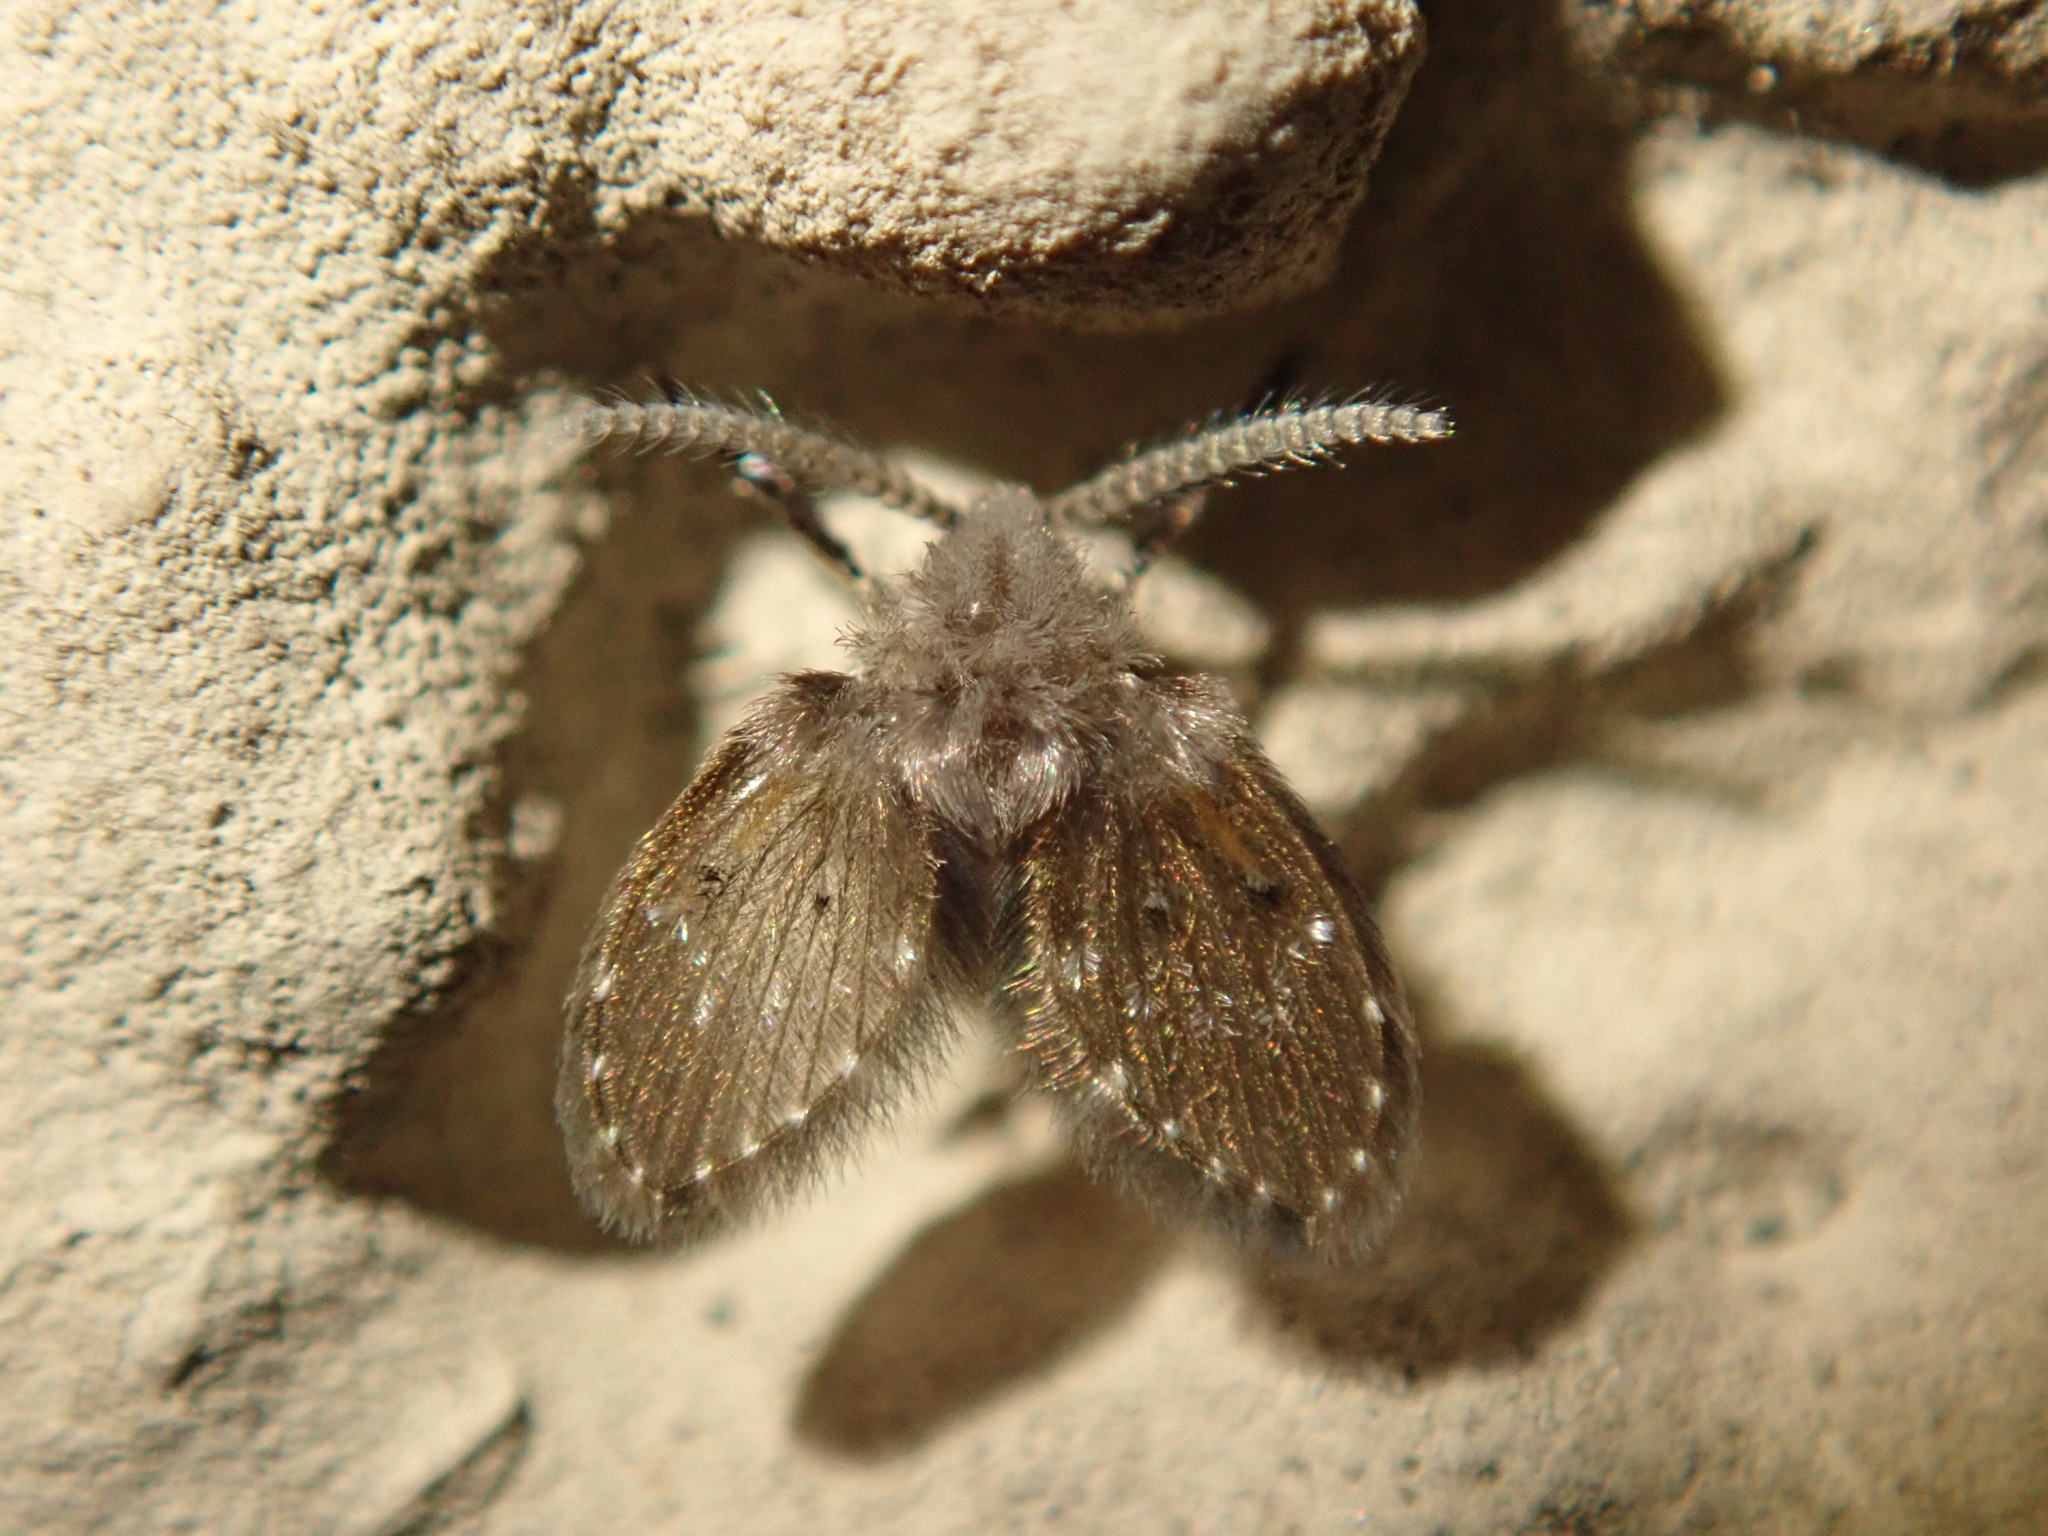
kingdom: Animalia
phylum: Arthropoda
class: Insecta
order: Diptera
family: Psychodidae
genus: Clogmia
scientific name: Clogmia albipunctatus
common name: White-spotted moth fly
